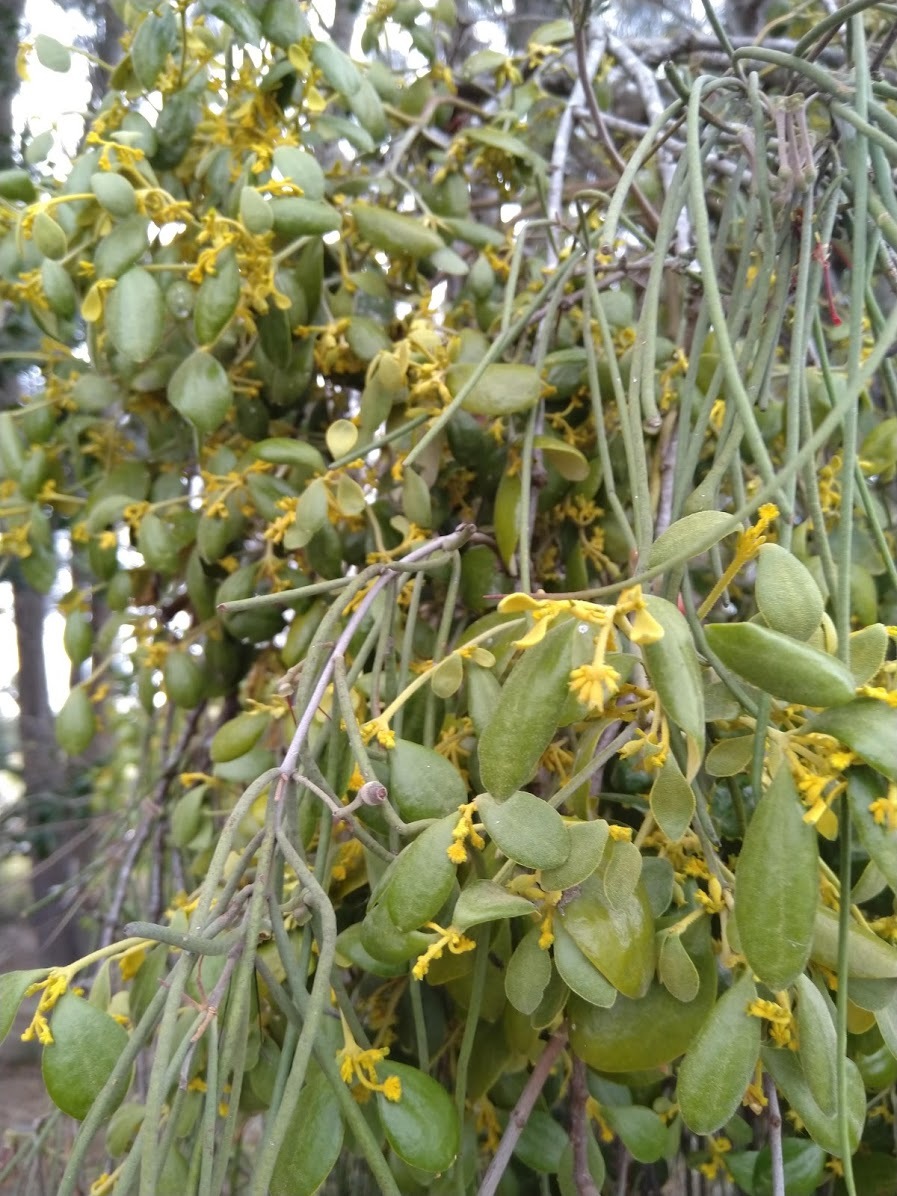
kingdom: Plantae
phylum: Tracheophyta
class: Magnoliopsida
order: Santalales
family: Viscaceae
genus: Notothixos
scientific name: Notothixos subaureus
